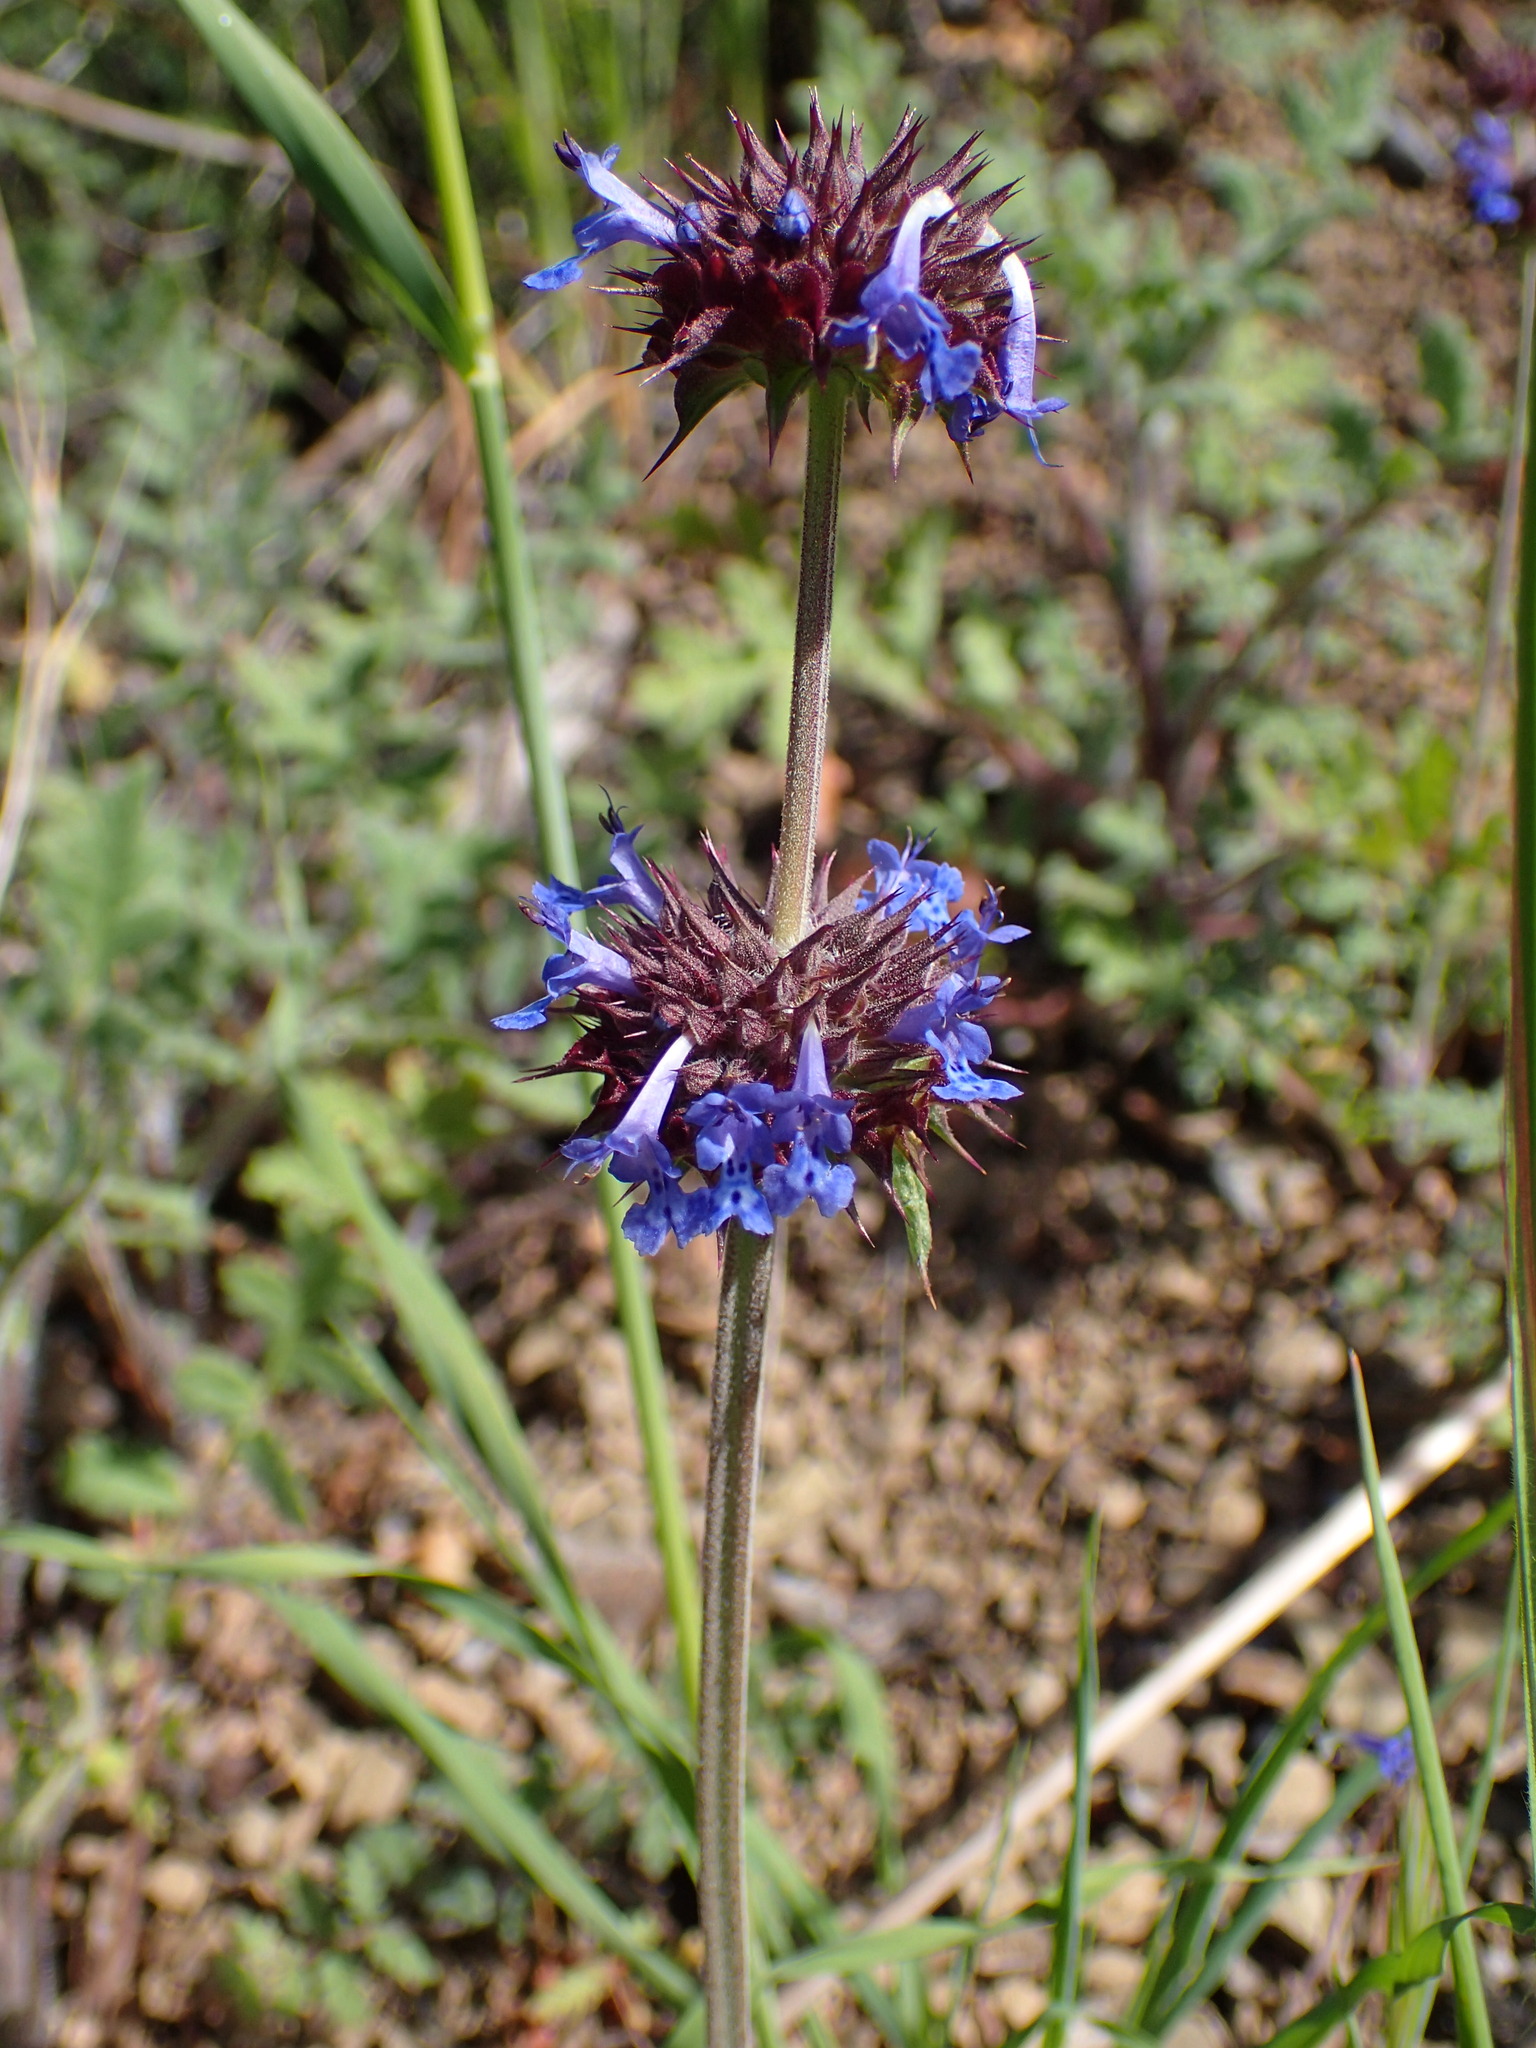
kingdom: Plantae
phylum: Tracheophyta
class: Magnoliopsida
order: Lamiales
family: Lamiaceae
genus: Salvia
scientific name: Salvia columbariae
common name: Chia
